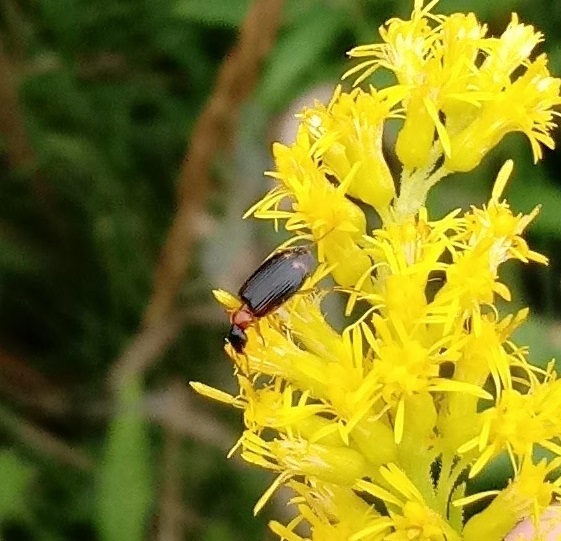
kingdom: Animalia
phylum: Arthropoda
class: Insecta
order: Coleoptera
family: Carabidae
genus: Lebia
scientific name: Lebia analis
